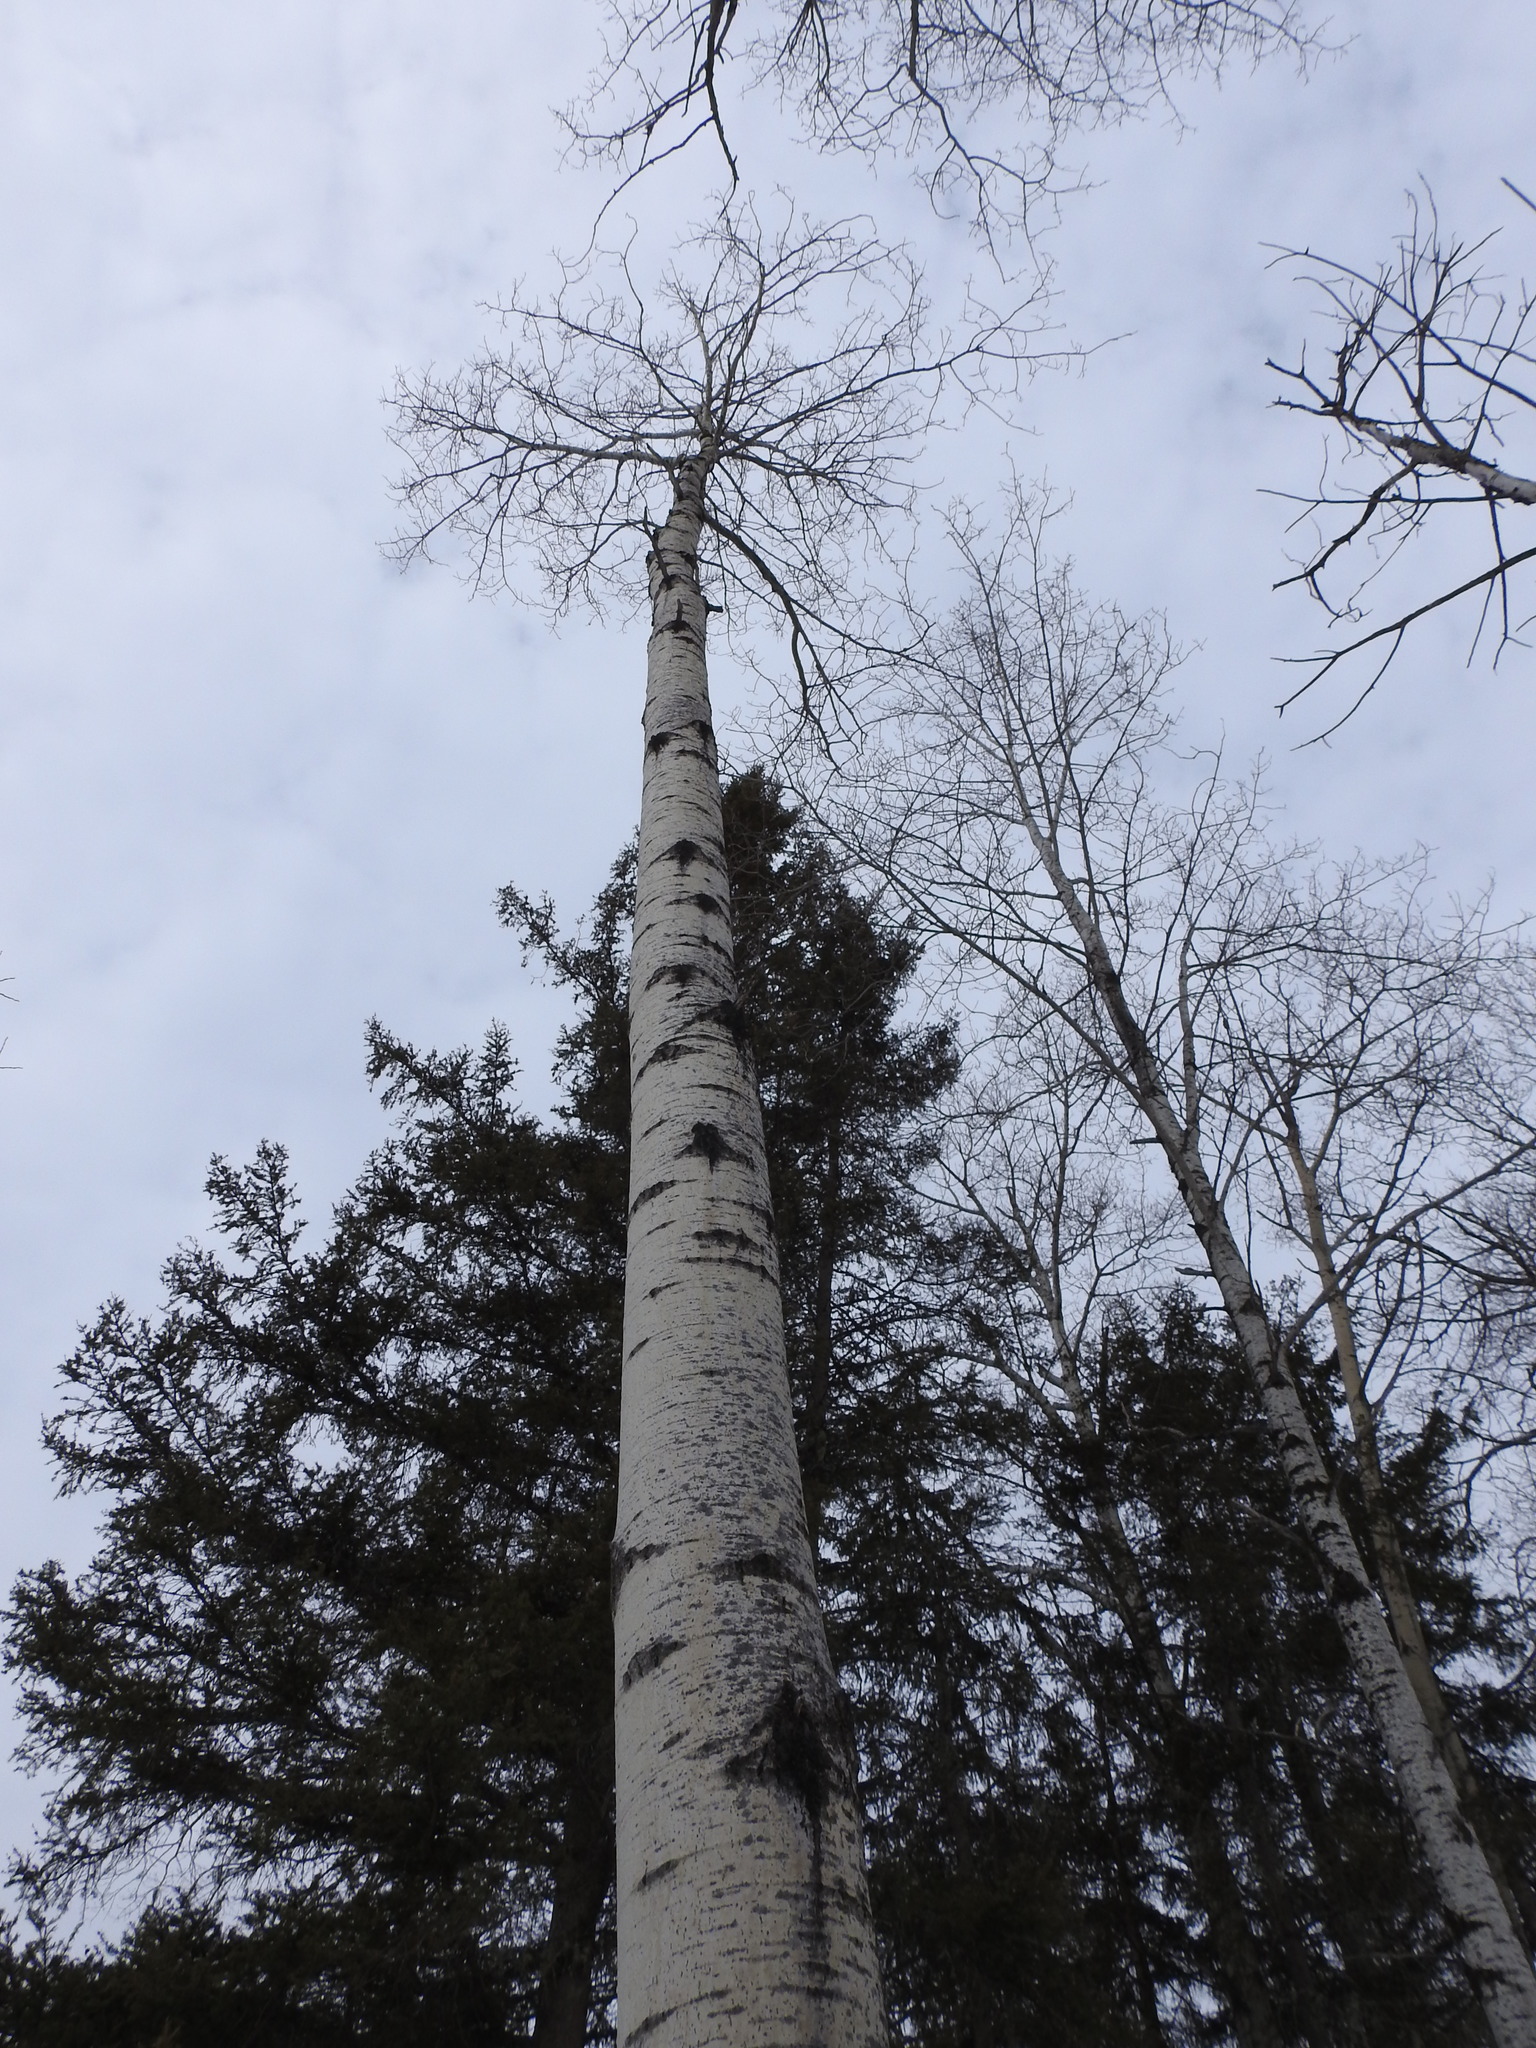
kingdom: Plantae
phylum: Tracheophyta
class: Magnoliopsida
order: Malpighiales
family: Salicaceae
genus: Populus
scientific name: Populus tremuloides
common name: Quaking aspen
